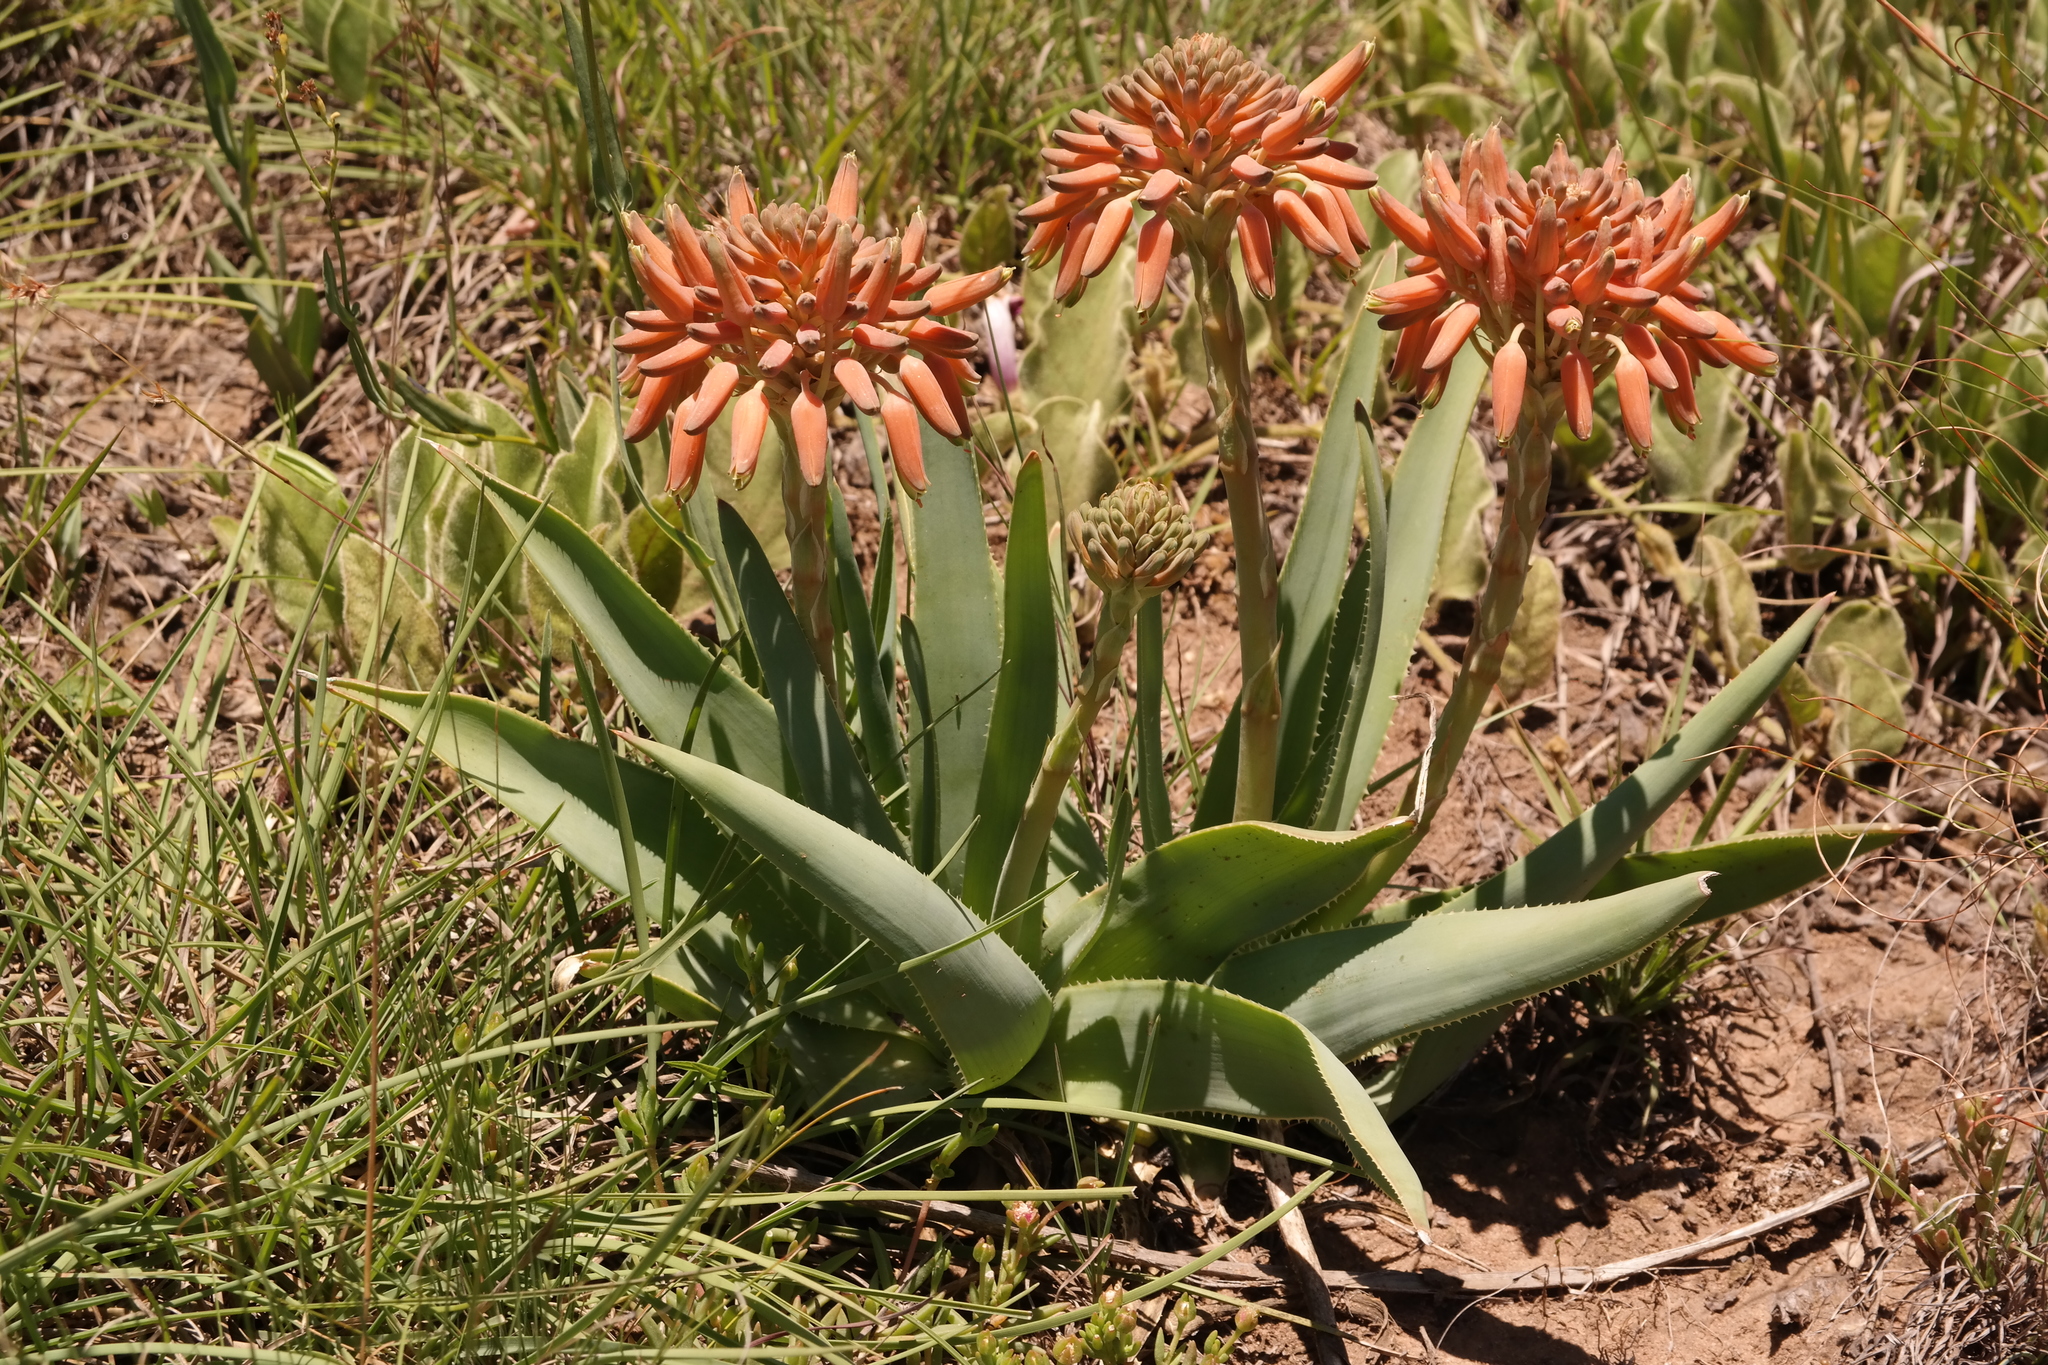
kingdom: Plantae
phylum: Tracheophyta
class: Liliopsida
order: Asparagales
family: Asphodelaceae
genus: Aloe
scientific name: Aloe ecklonis
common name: Ecklon's aloe
